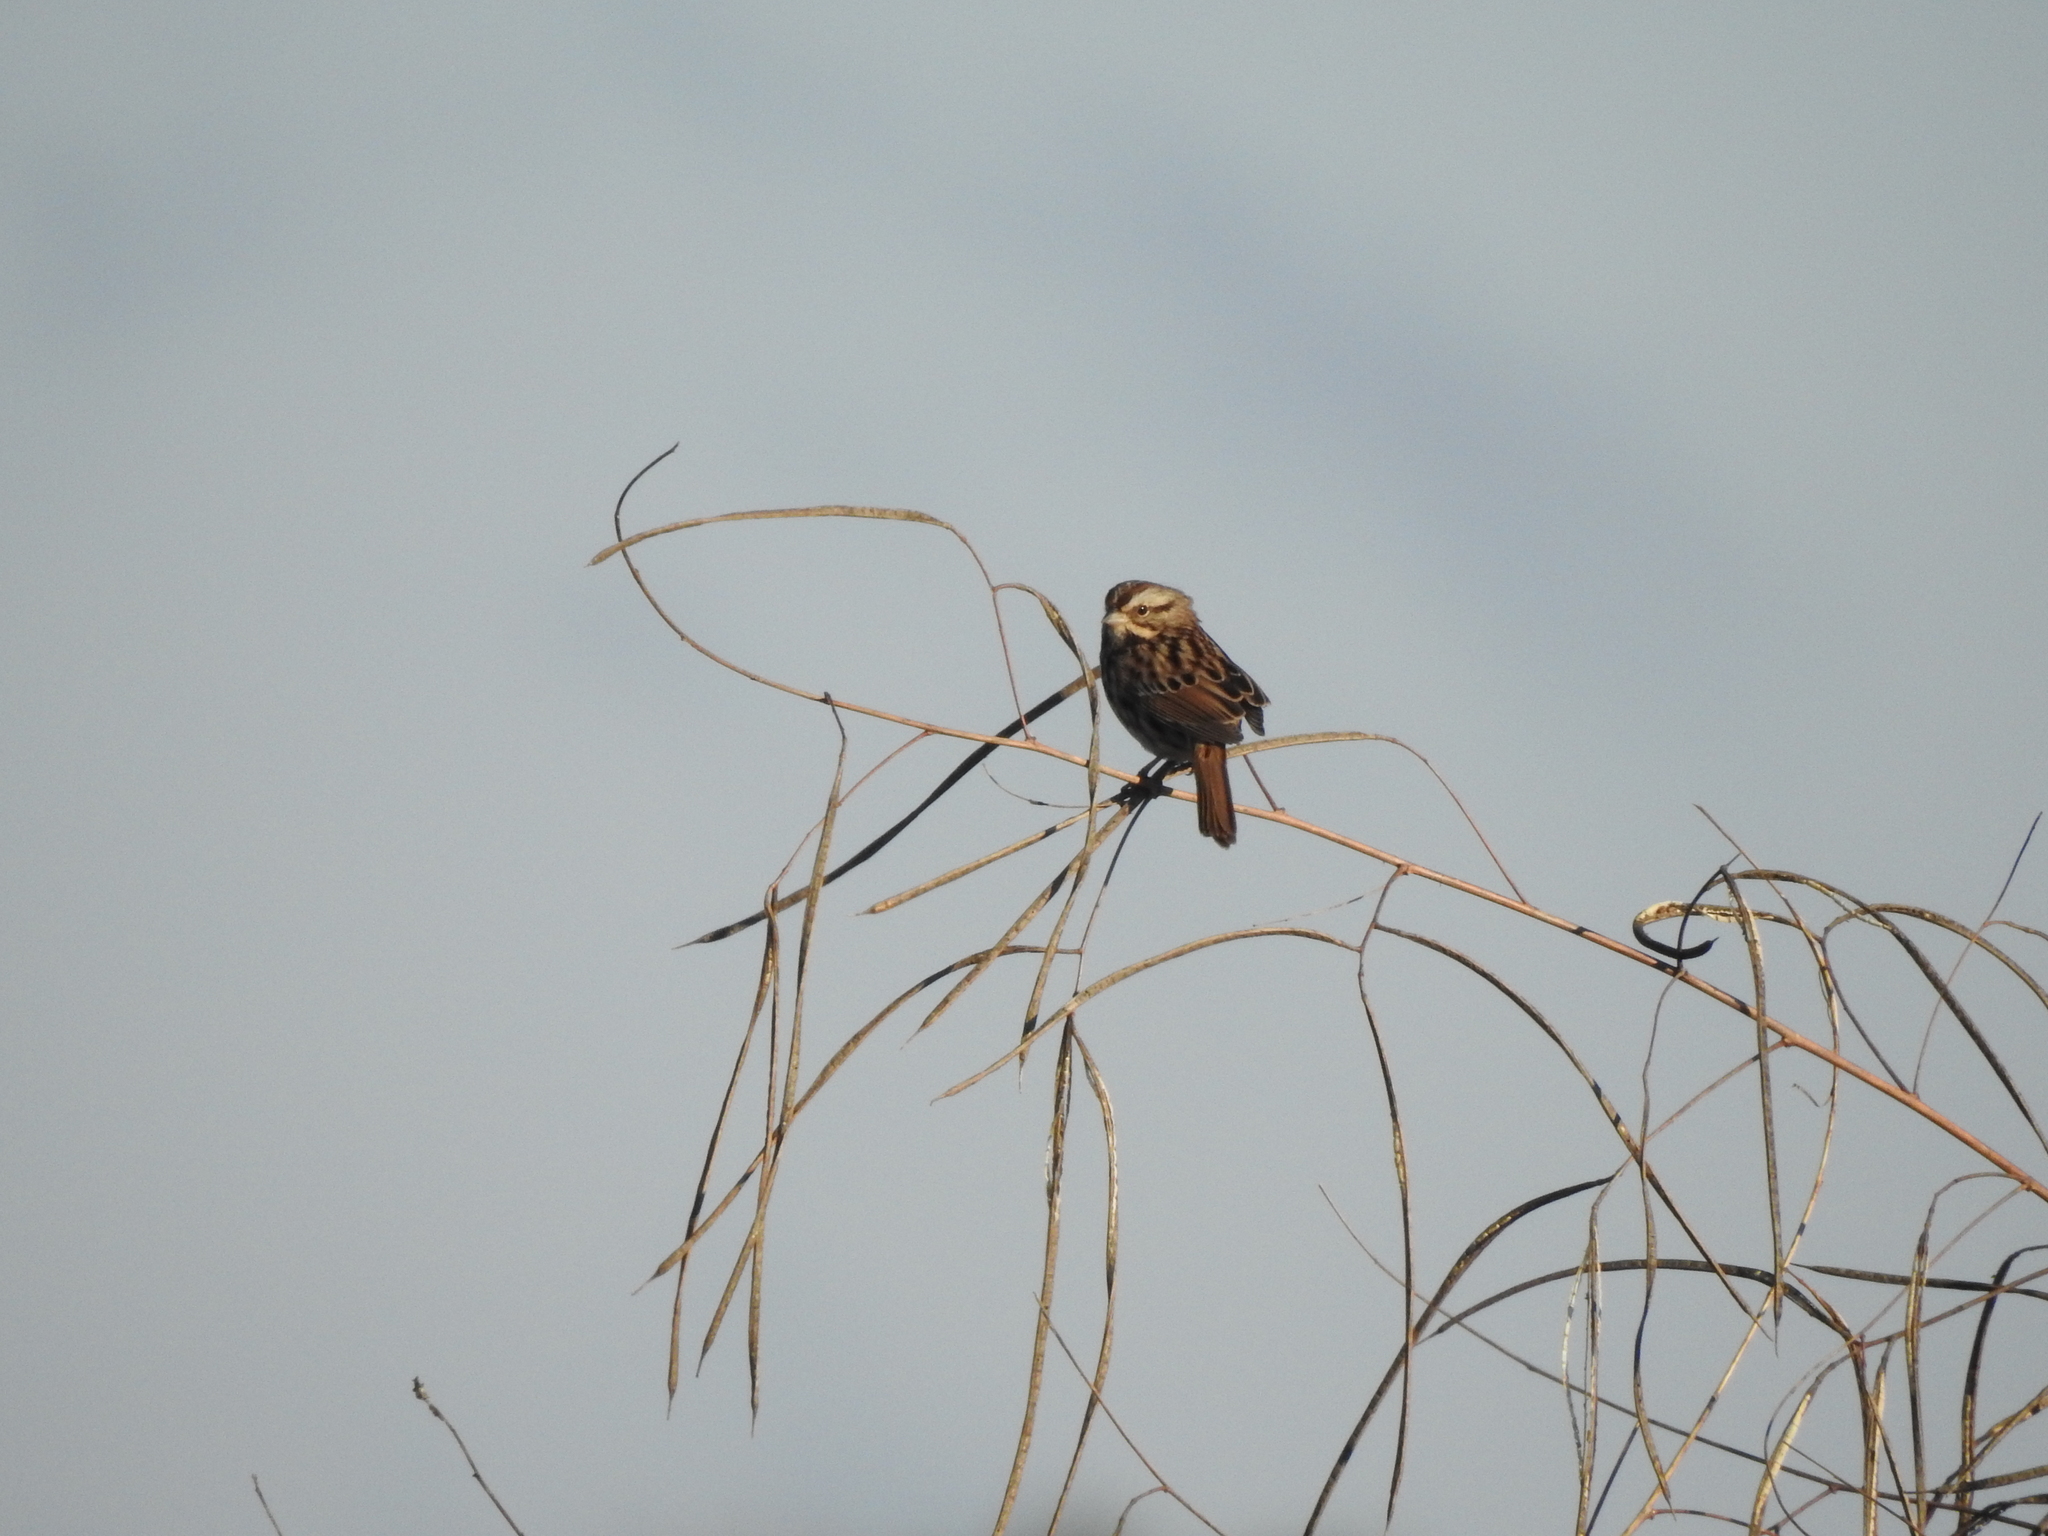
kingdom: Animalia
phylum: Chordata
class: Aves
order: Passeriformes
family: Passerellidae
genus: Melospiza
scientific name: Melospiza melodia
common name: Song sparrow
